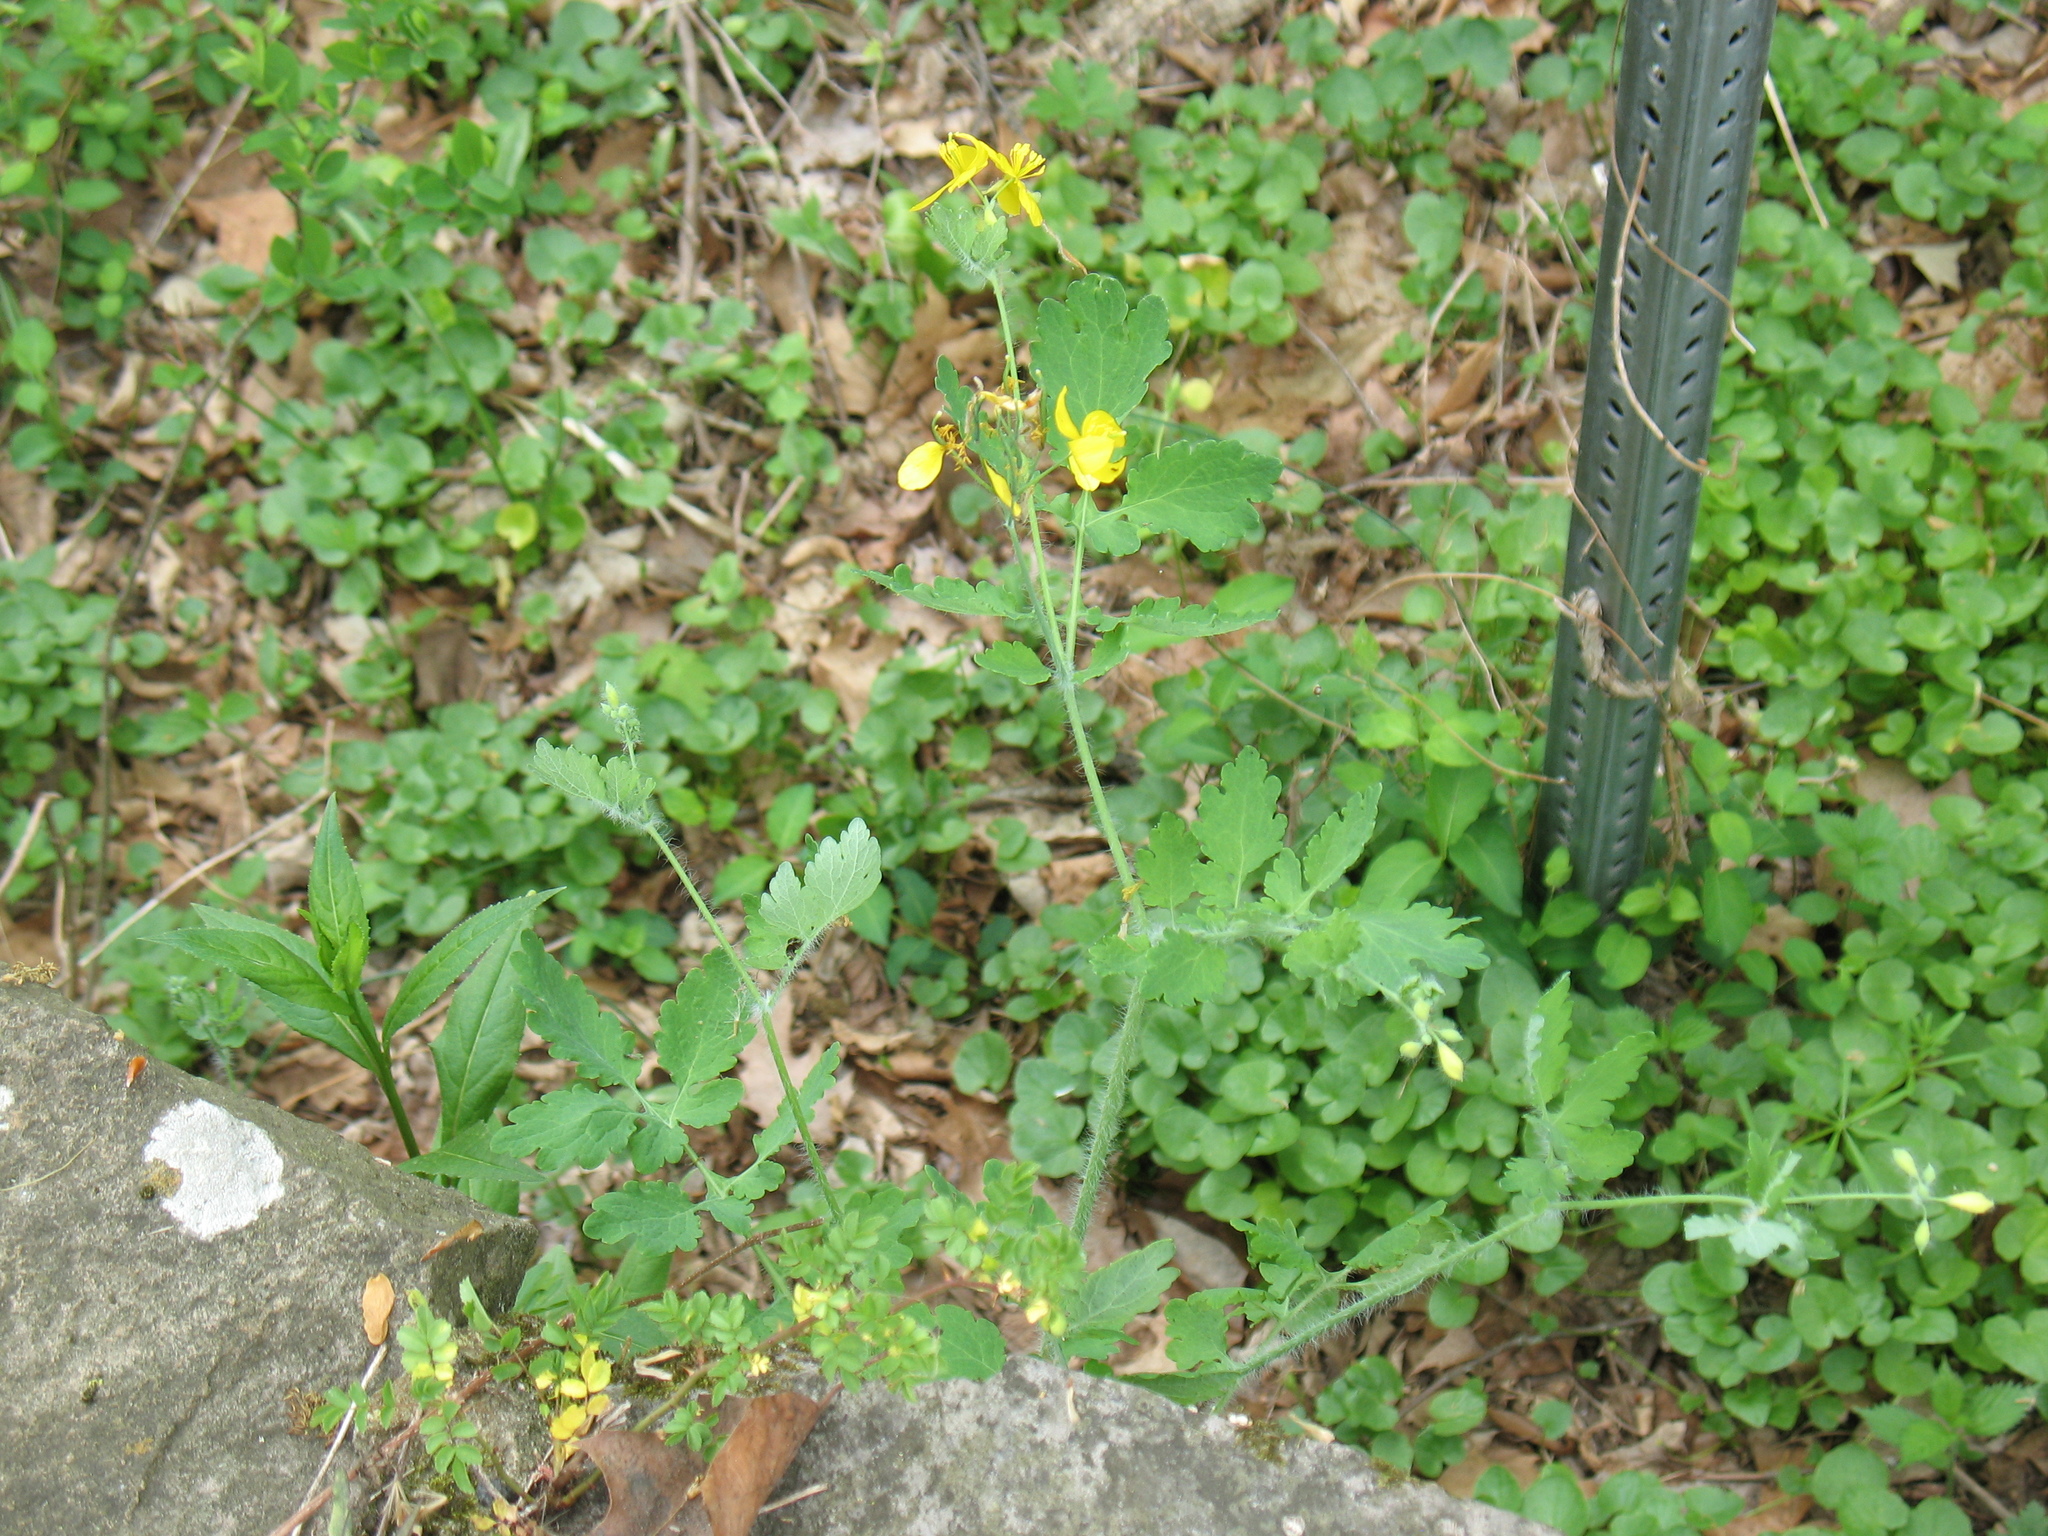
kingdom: Plantae
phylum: Tracheophyta
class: Magnoliopsida
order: Ranunculales
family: Papaveraceae
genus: Chelidonium
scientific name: Chelidonium majus
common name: Greater celandine
